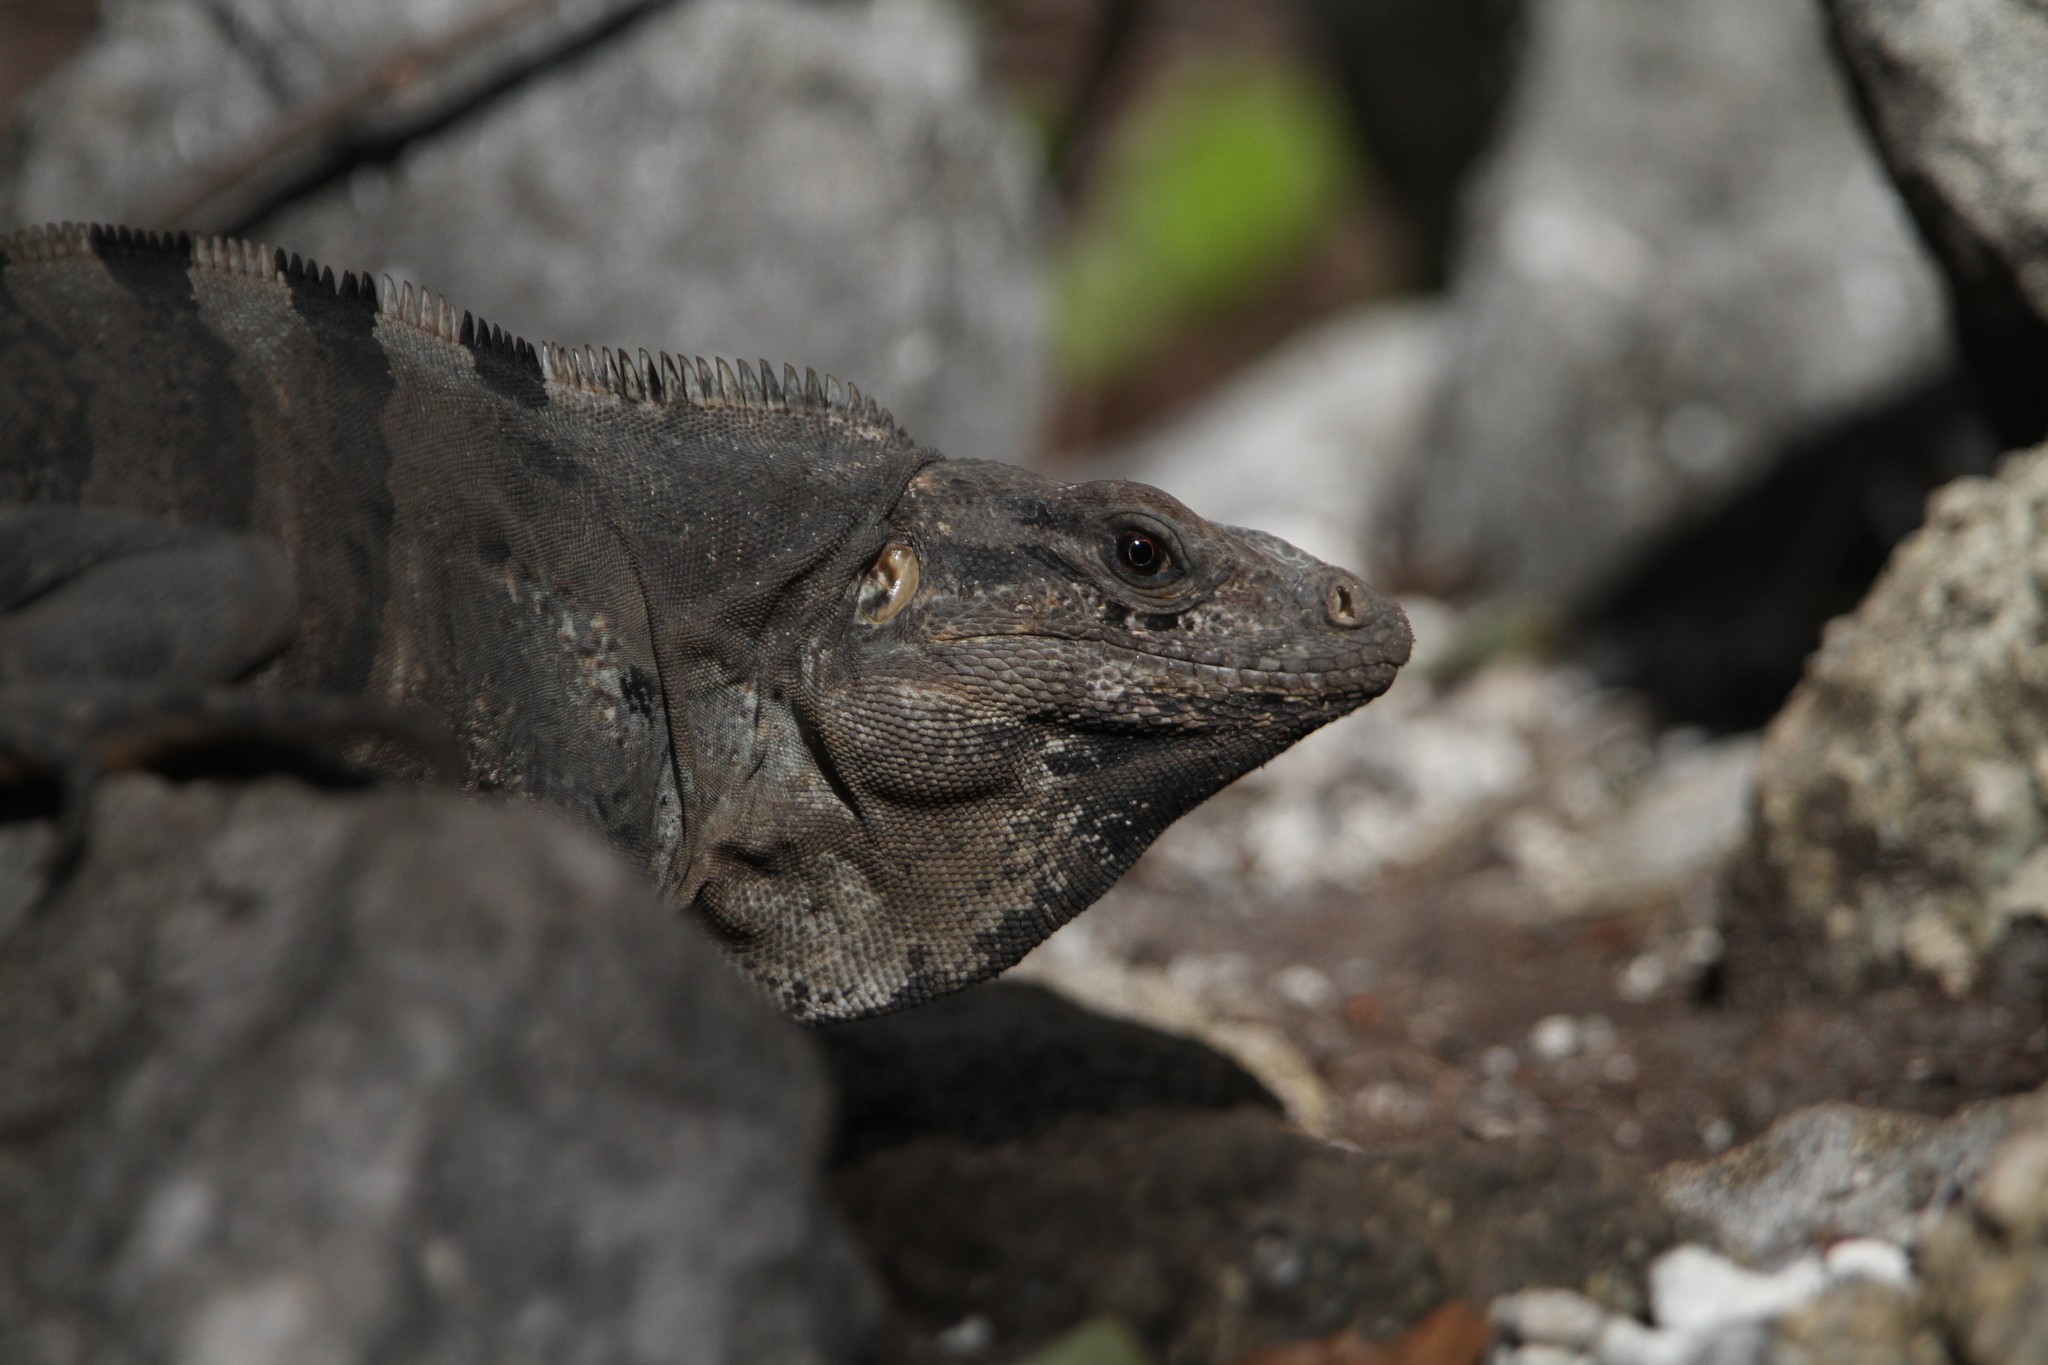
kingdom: Animalia
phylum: Chordata
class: Squamata
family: Iguanidae
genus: Ctenosaura
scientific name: Ctenosaura similis
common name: Black spiny-tailed iguana
